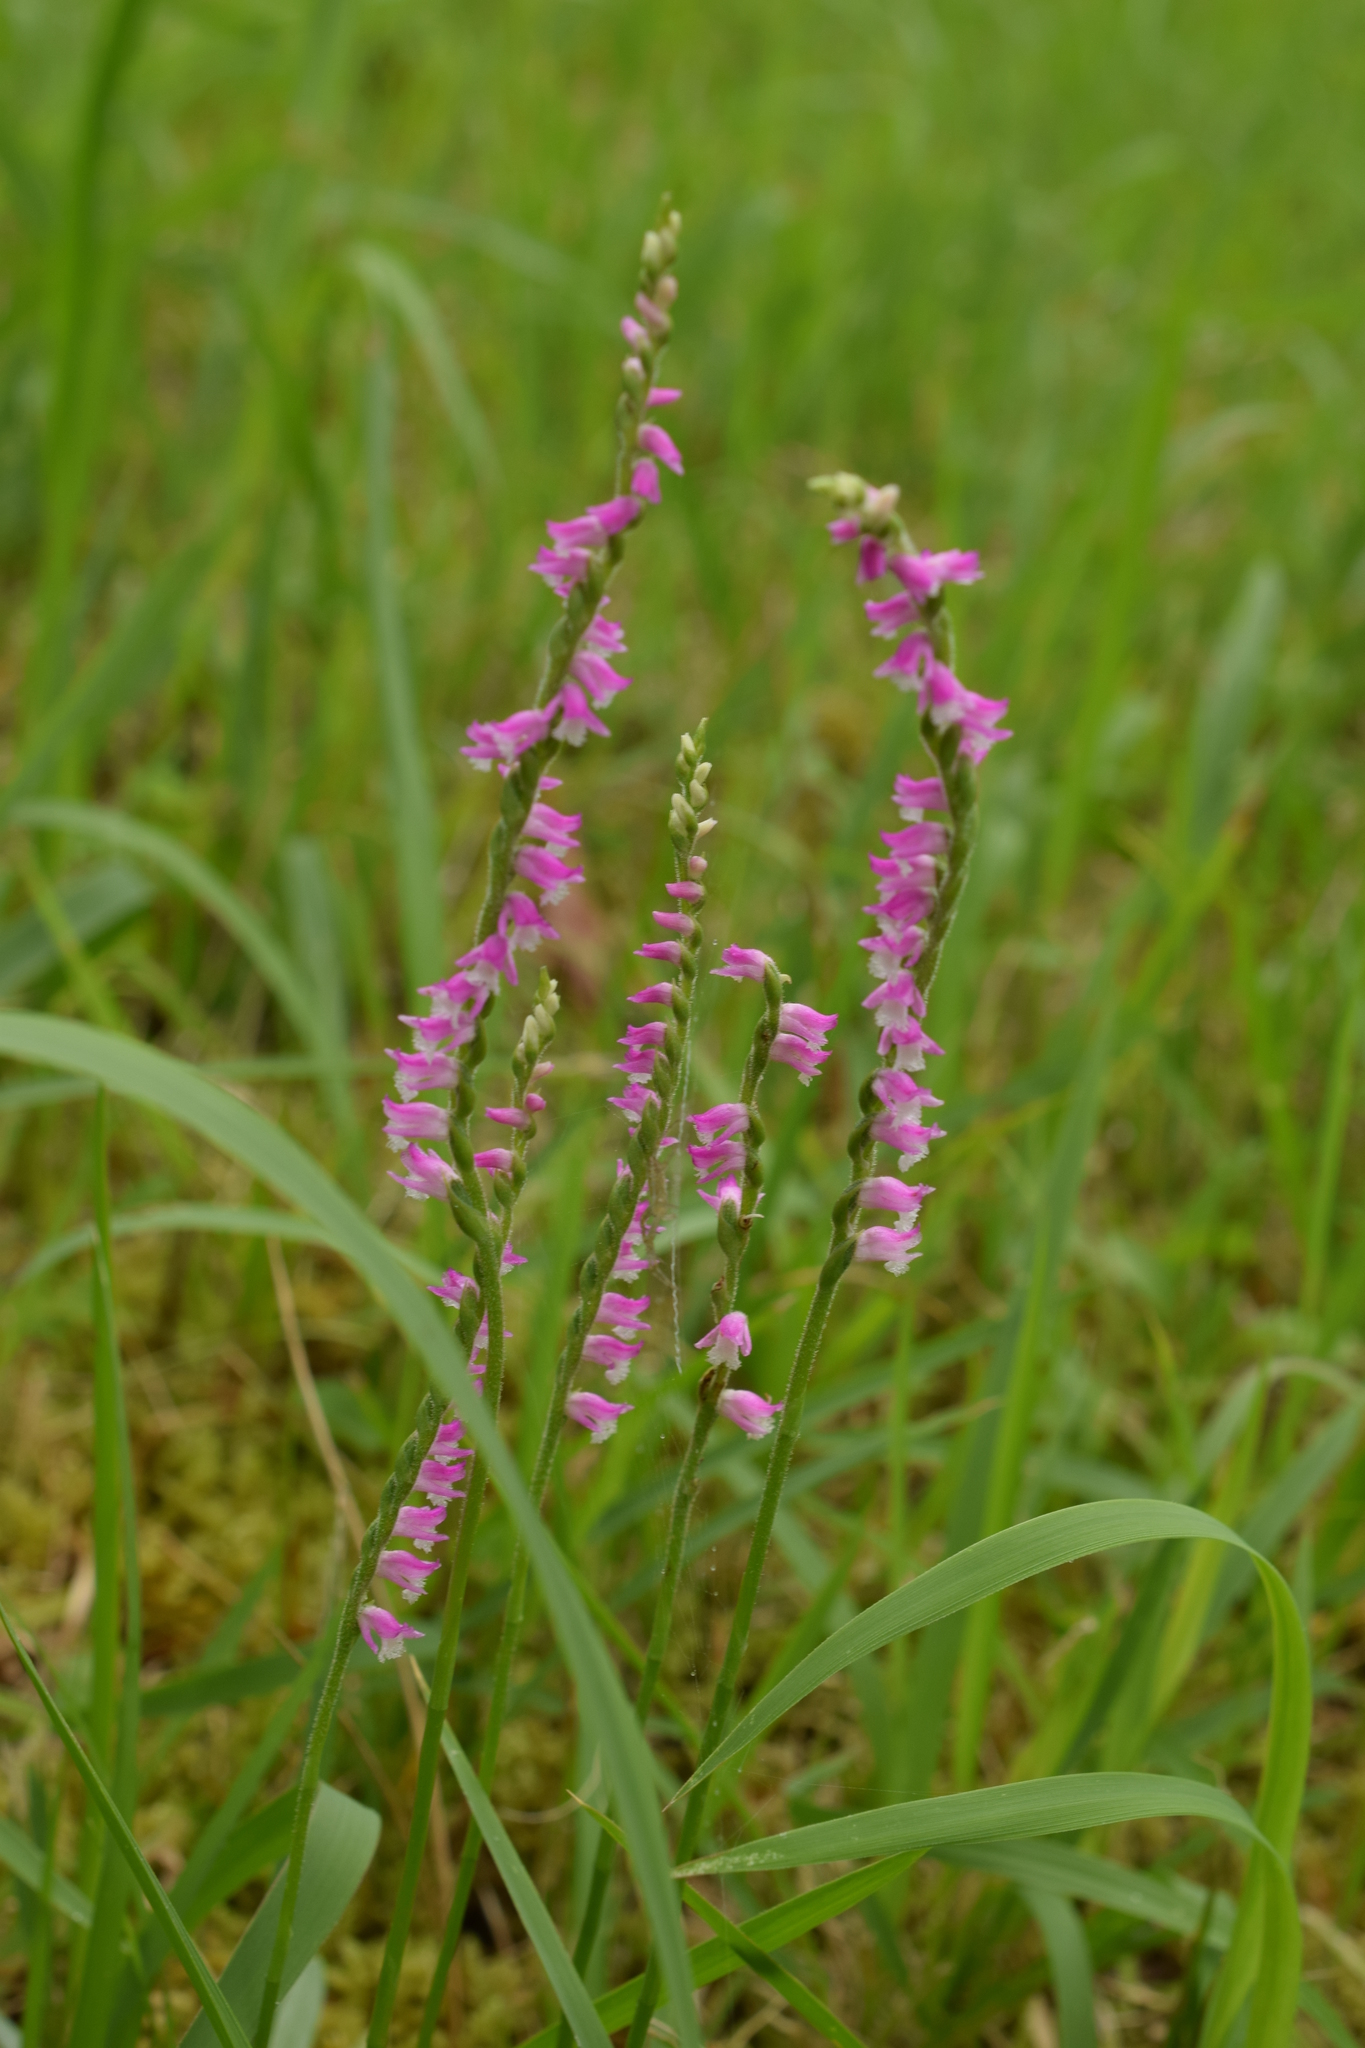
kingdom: Plantae
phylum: Tracheophyta
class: Liliopsida
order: Asparagales
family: Orchidaceae
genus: Spiranthes
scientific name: Spiranthes australis
